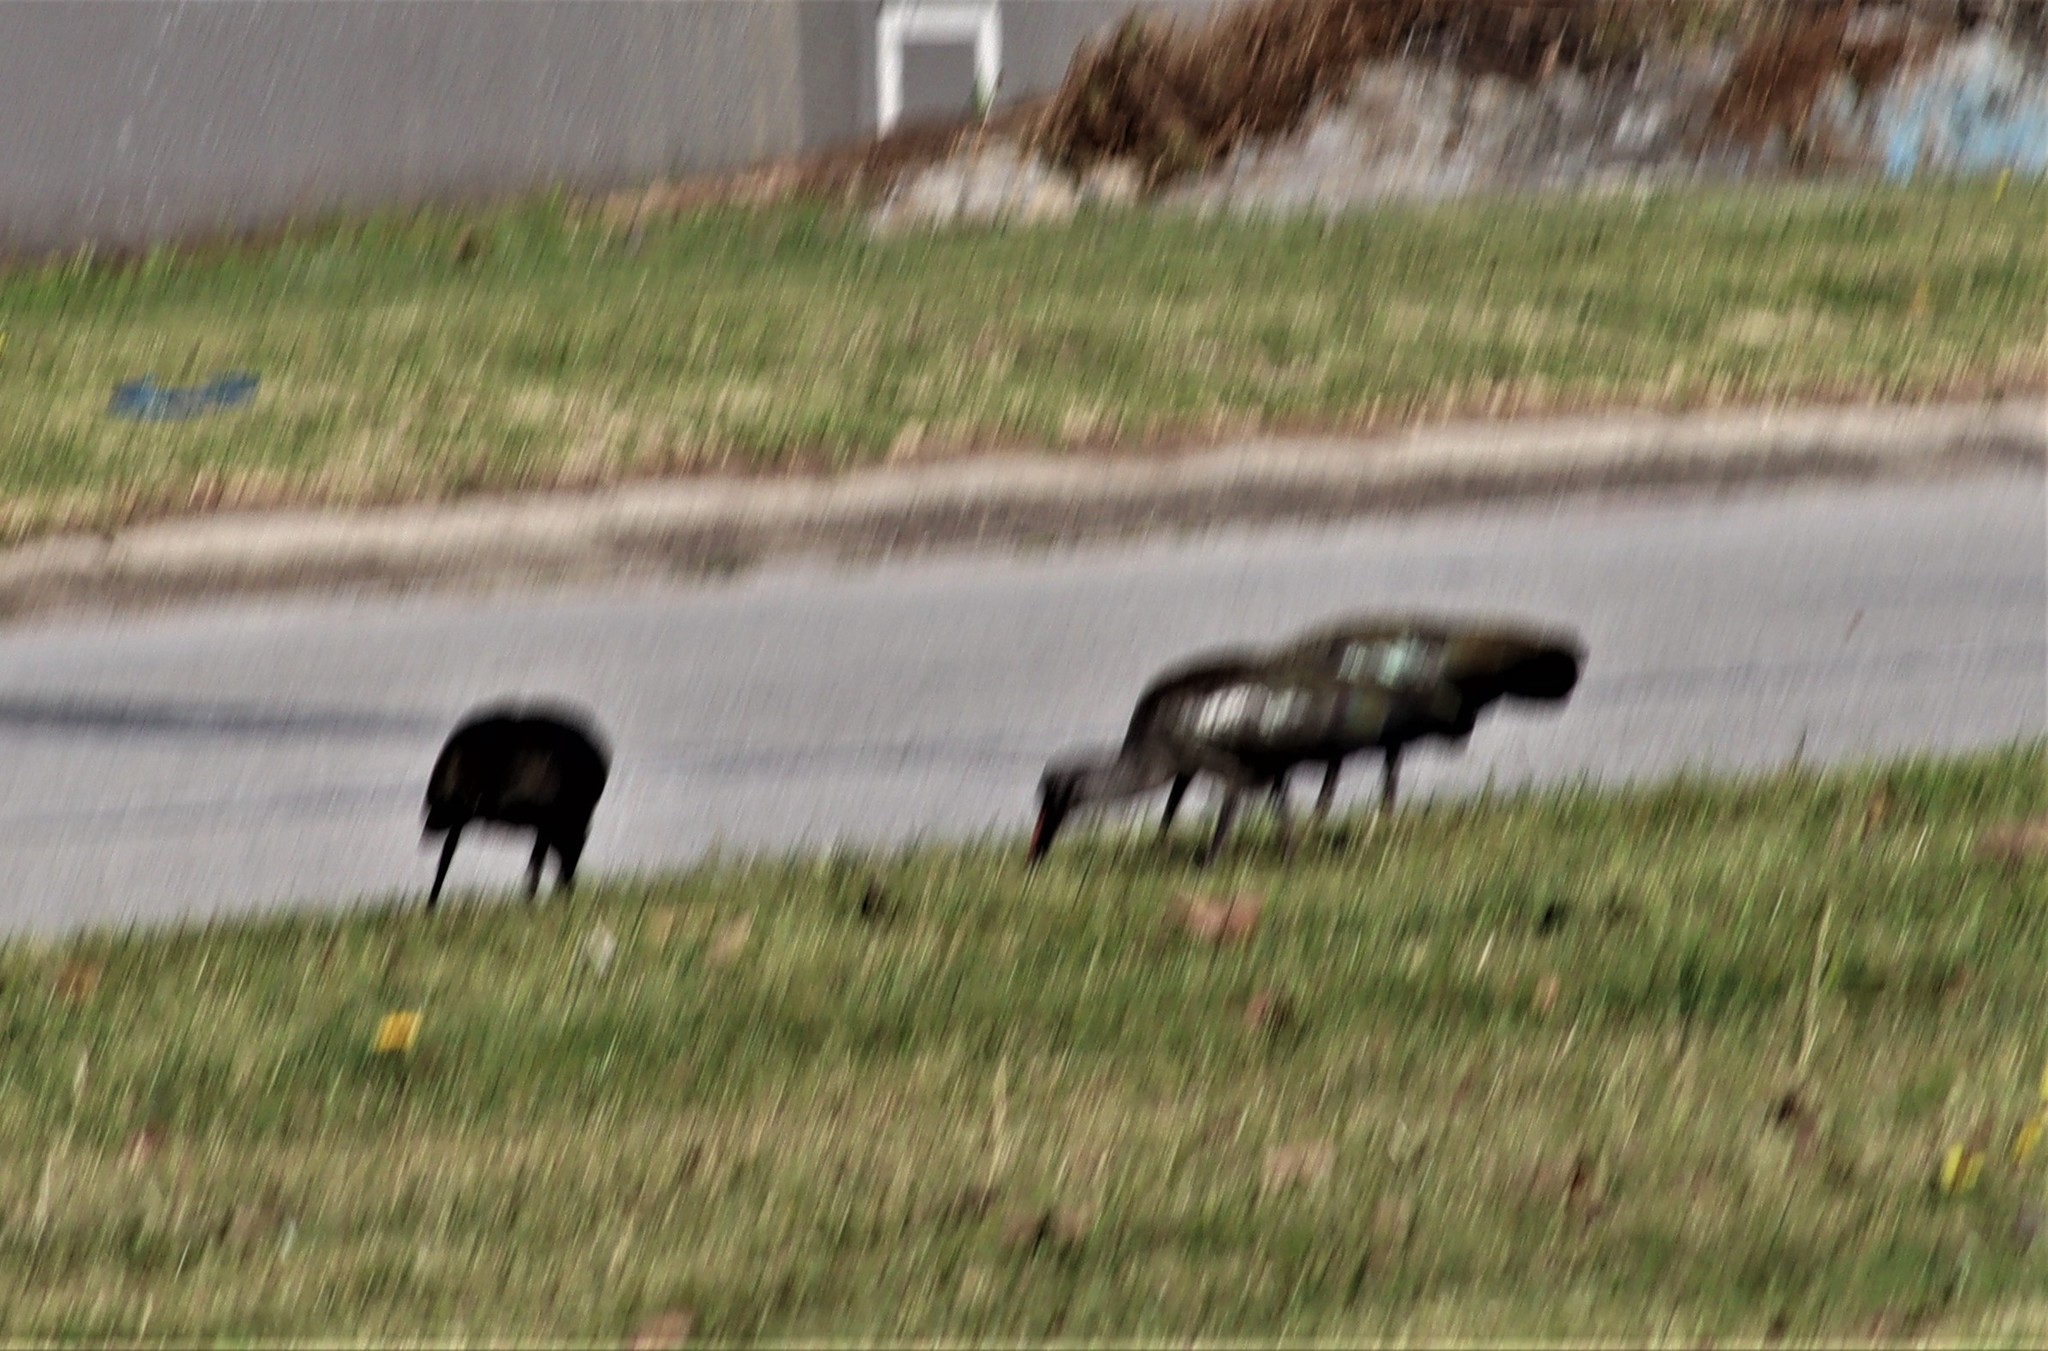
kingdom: Animalia
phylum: Chordata
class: Aves
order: Pelecaniformes
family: Threskiornithidae
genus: Bostrychia
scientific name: Bostrychia hagedash
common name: Hadada ibis
